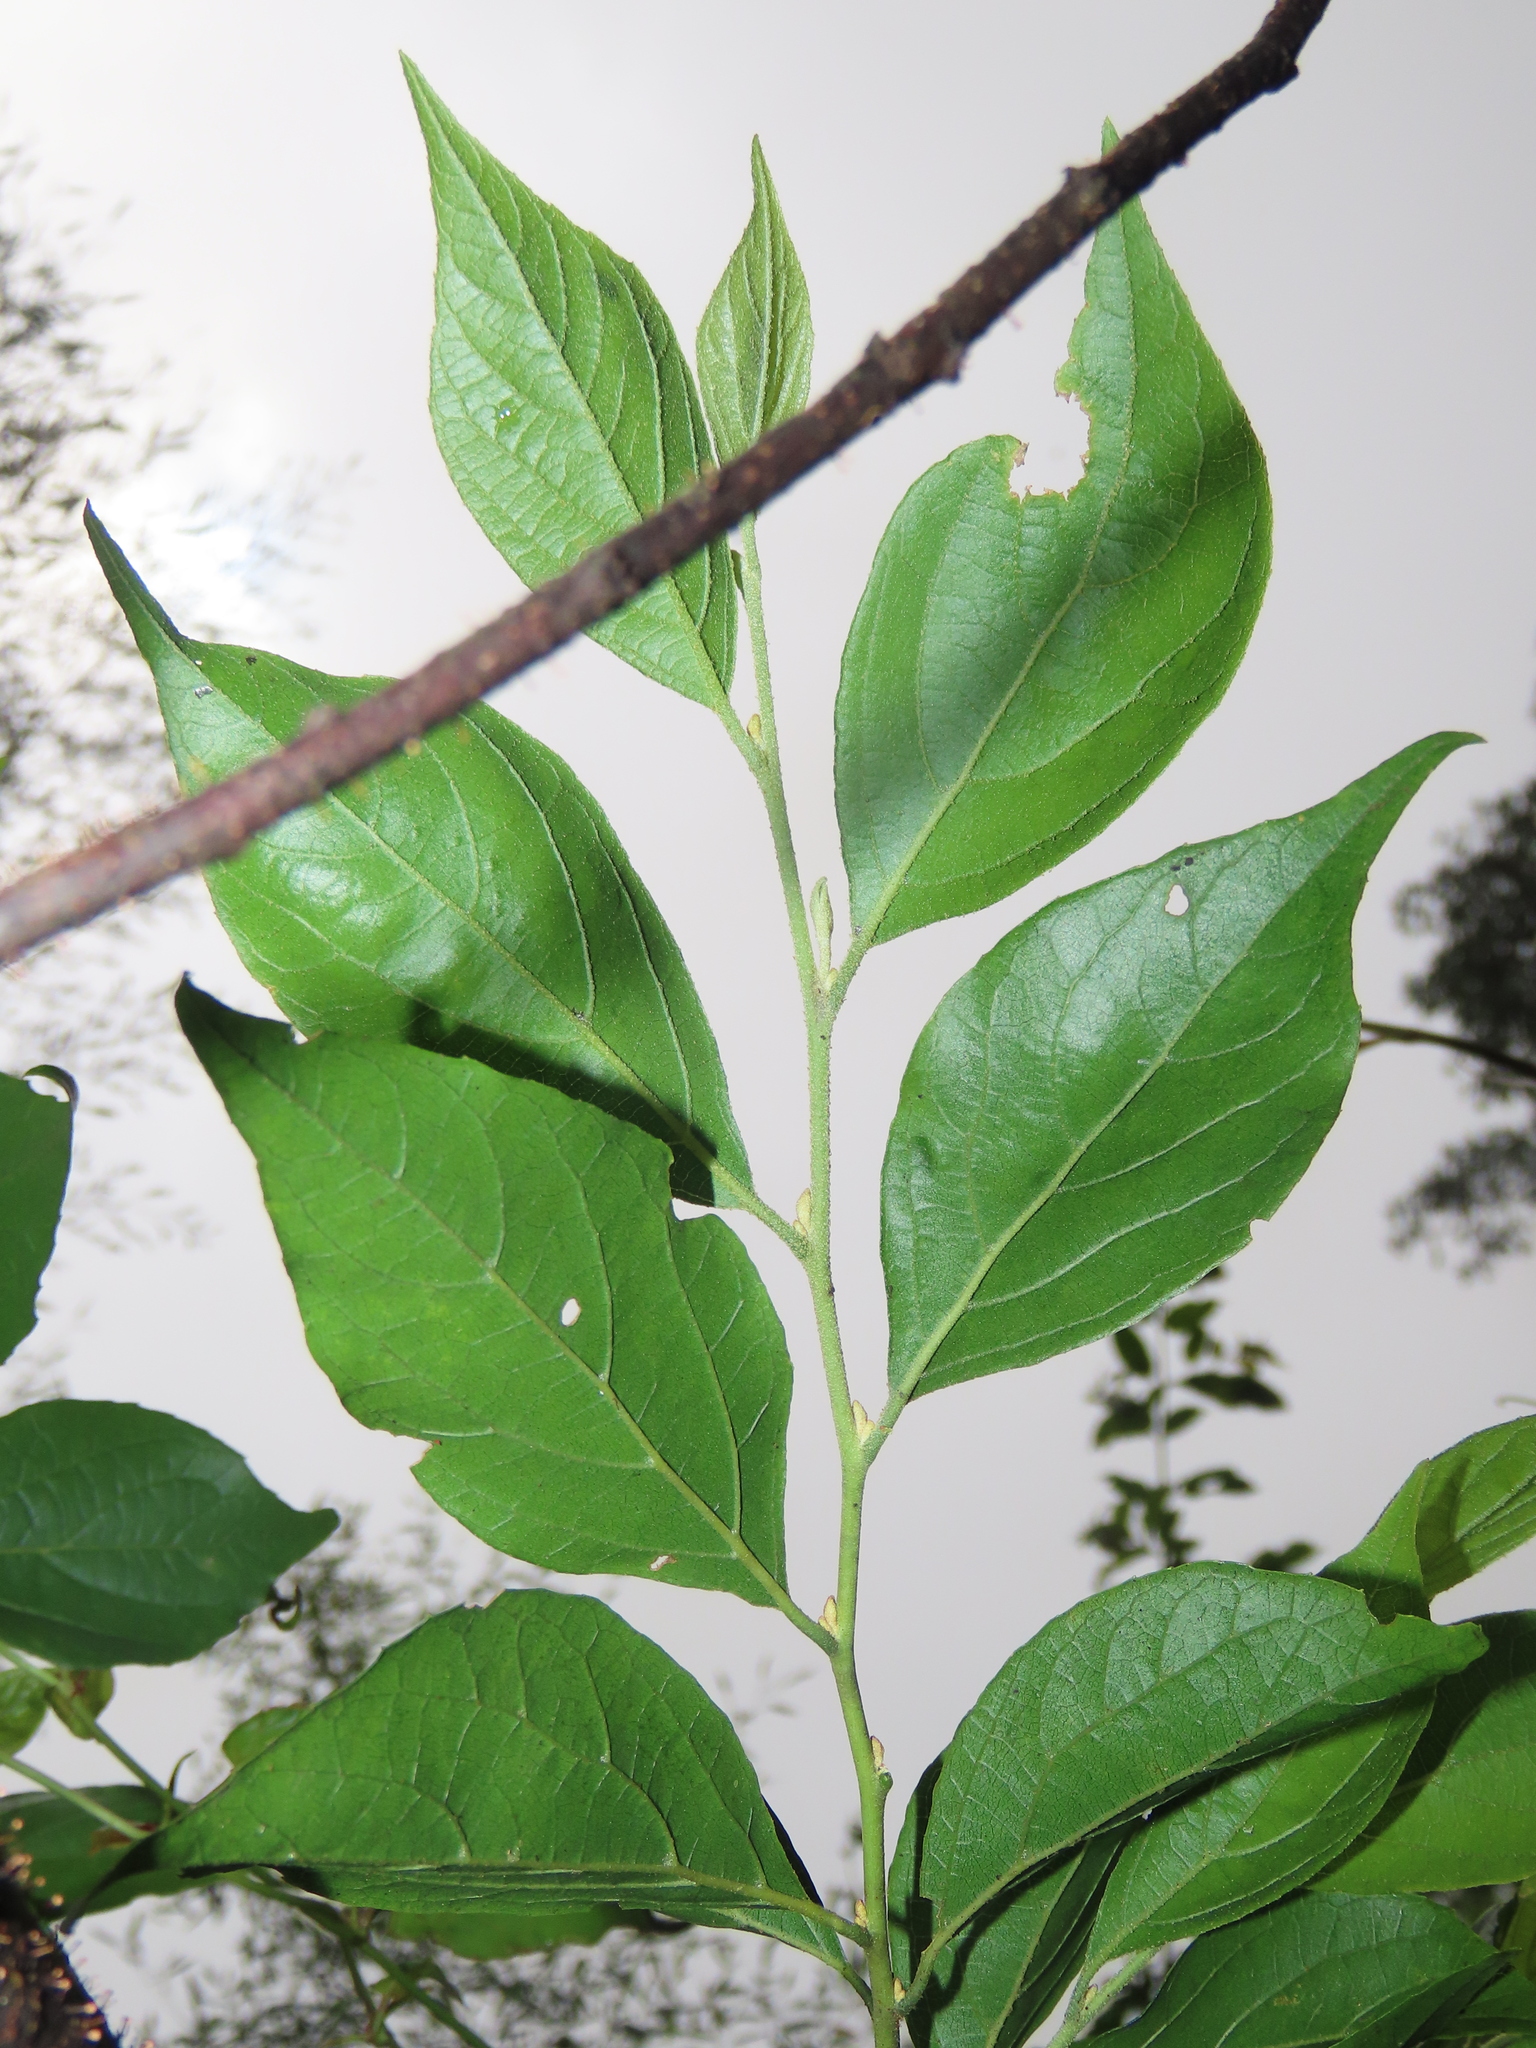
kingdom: Plantae
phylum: Tracheophyta
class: Magnoliopsida
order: Ericales
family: Styracaceae
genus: Styrax
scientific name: Styrax formosanus
